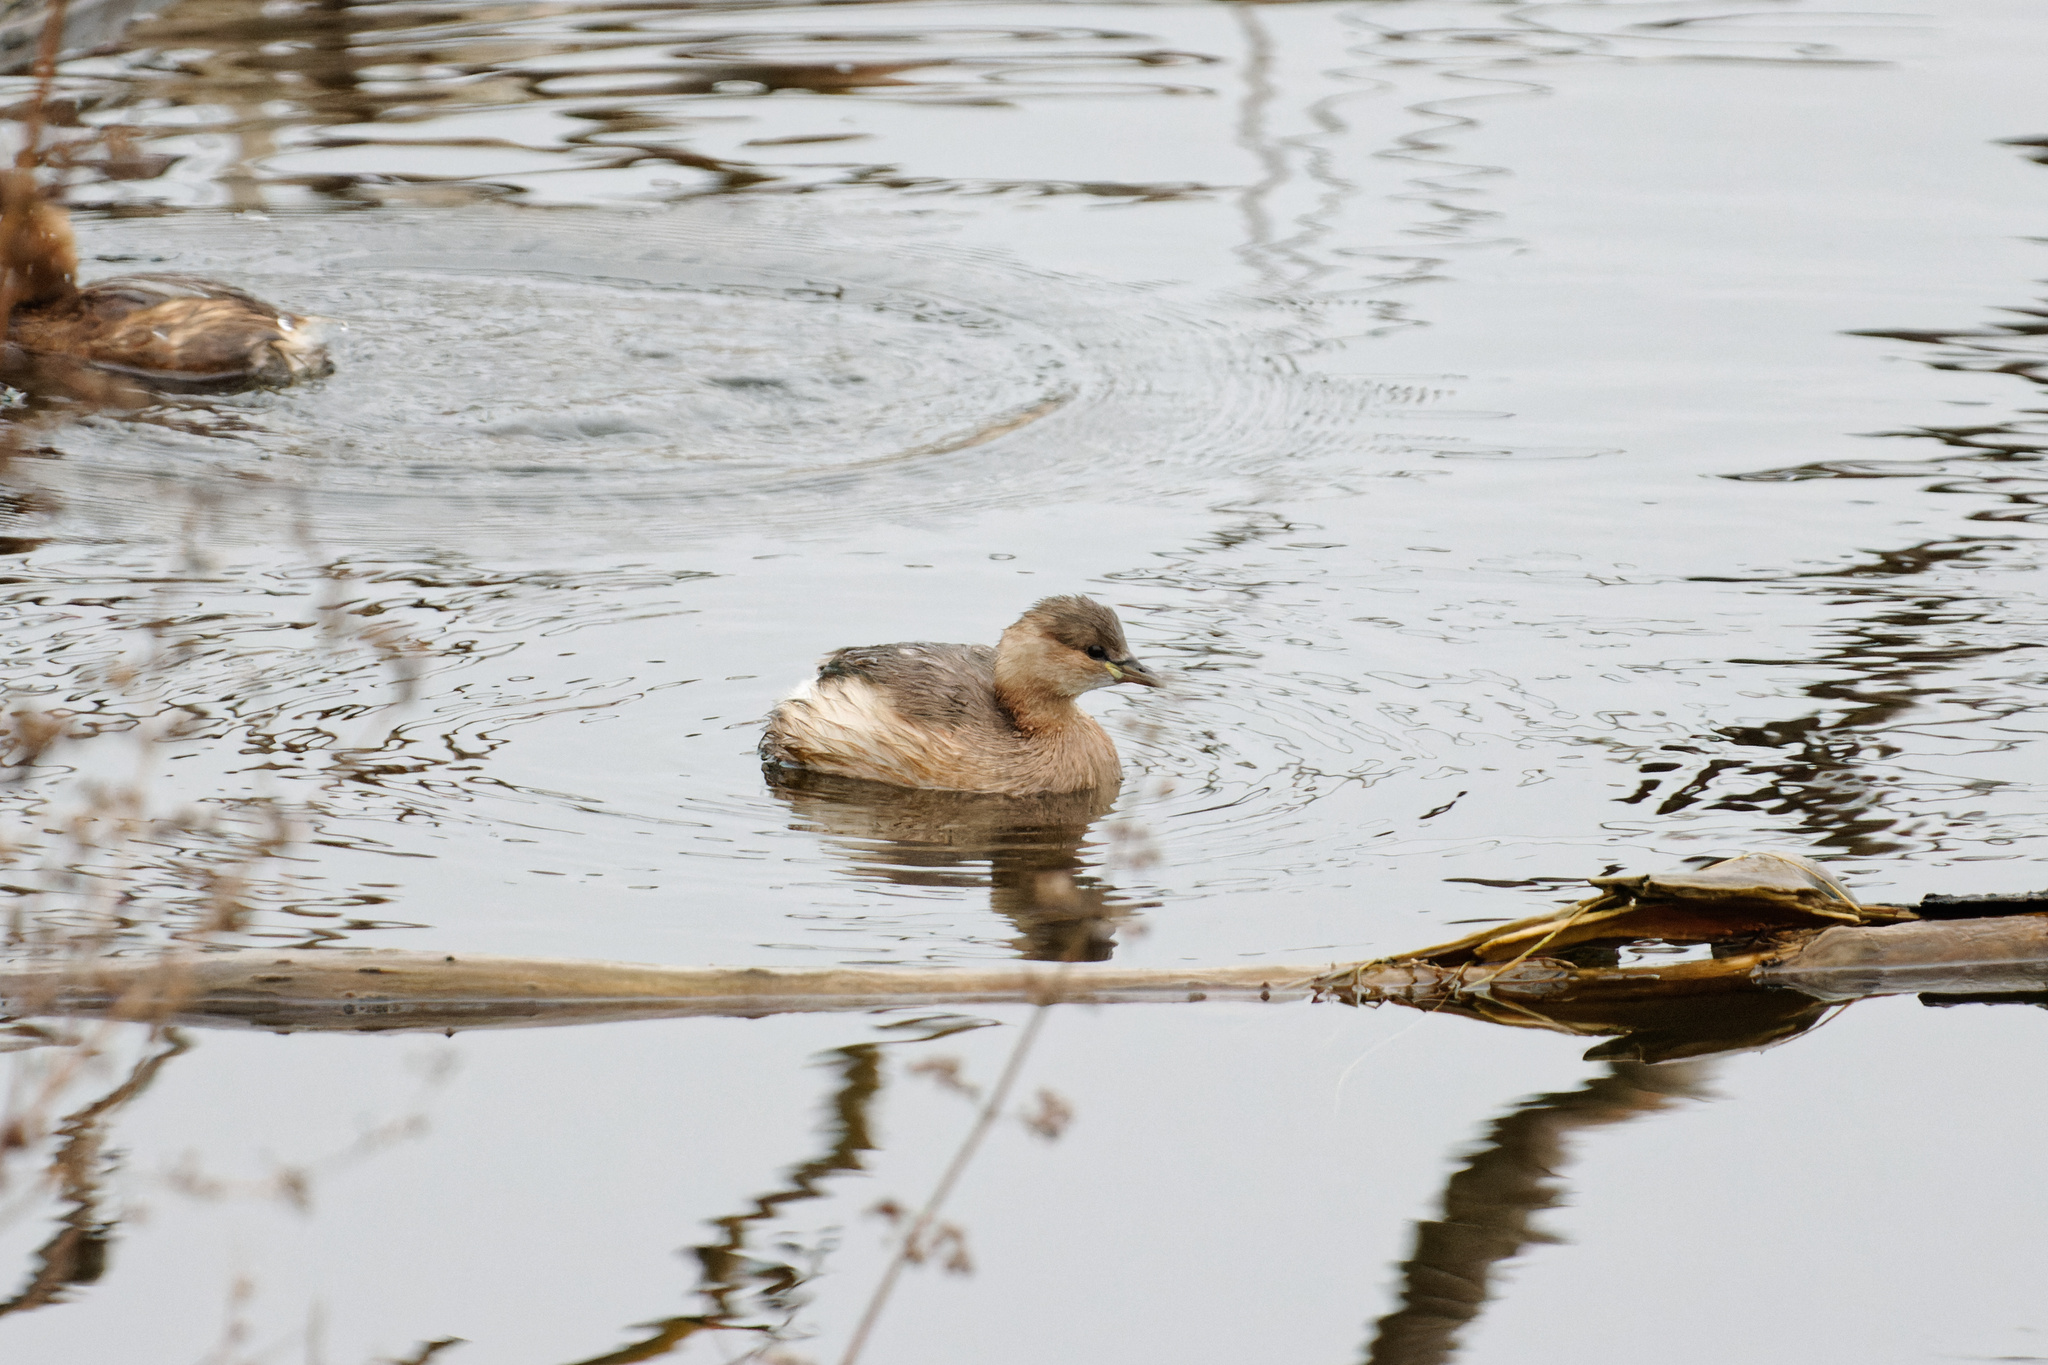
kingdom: Animalia
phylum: Chordata
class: Aves
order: Podicipediformes
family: Podicipedidae
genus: Tachybaptus
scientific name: Tachybaptus ruficollis
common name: Little grebe
